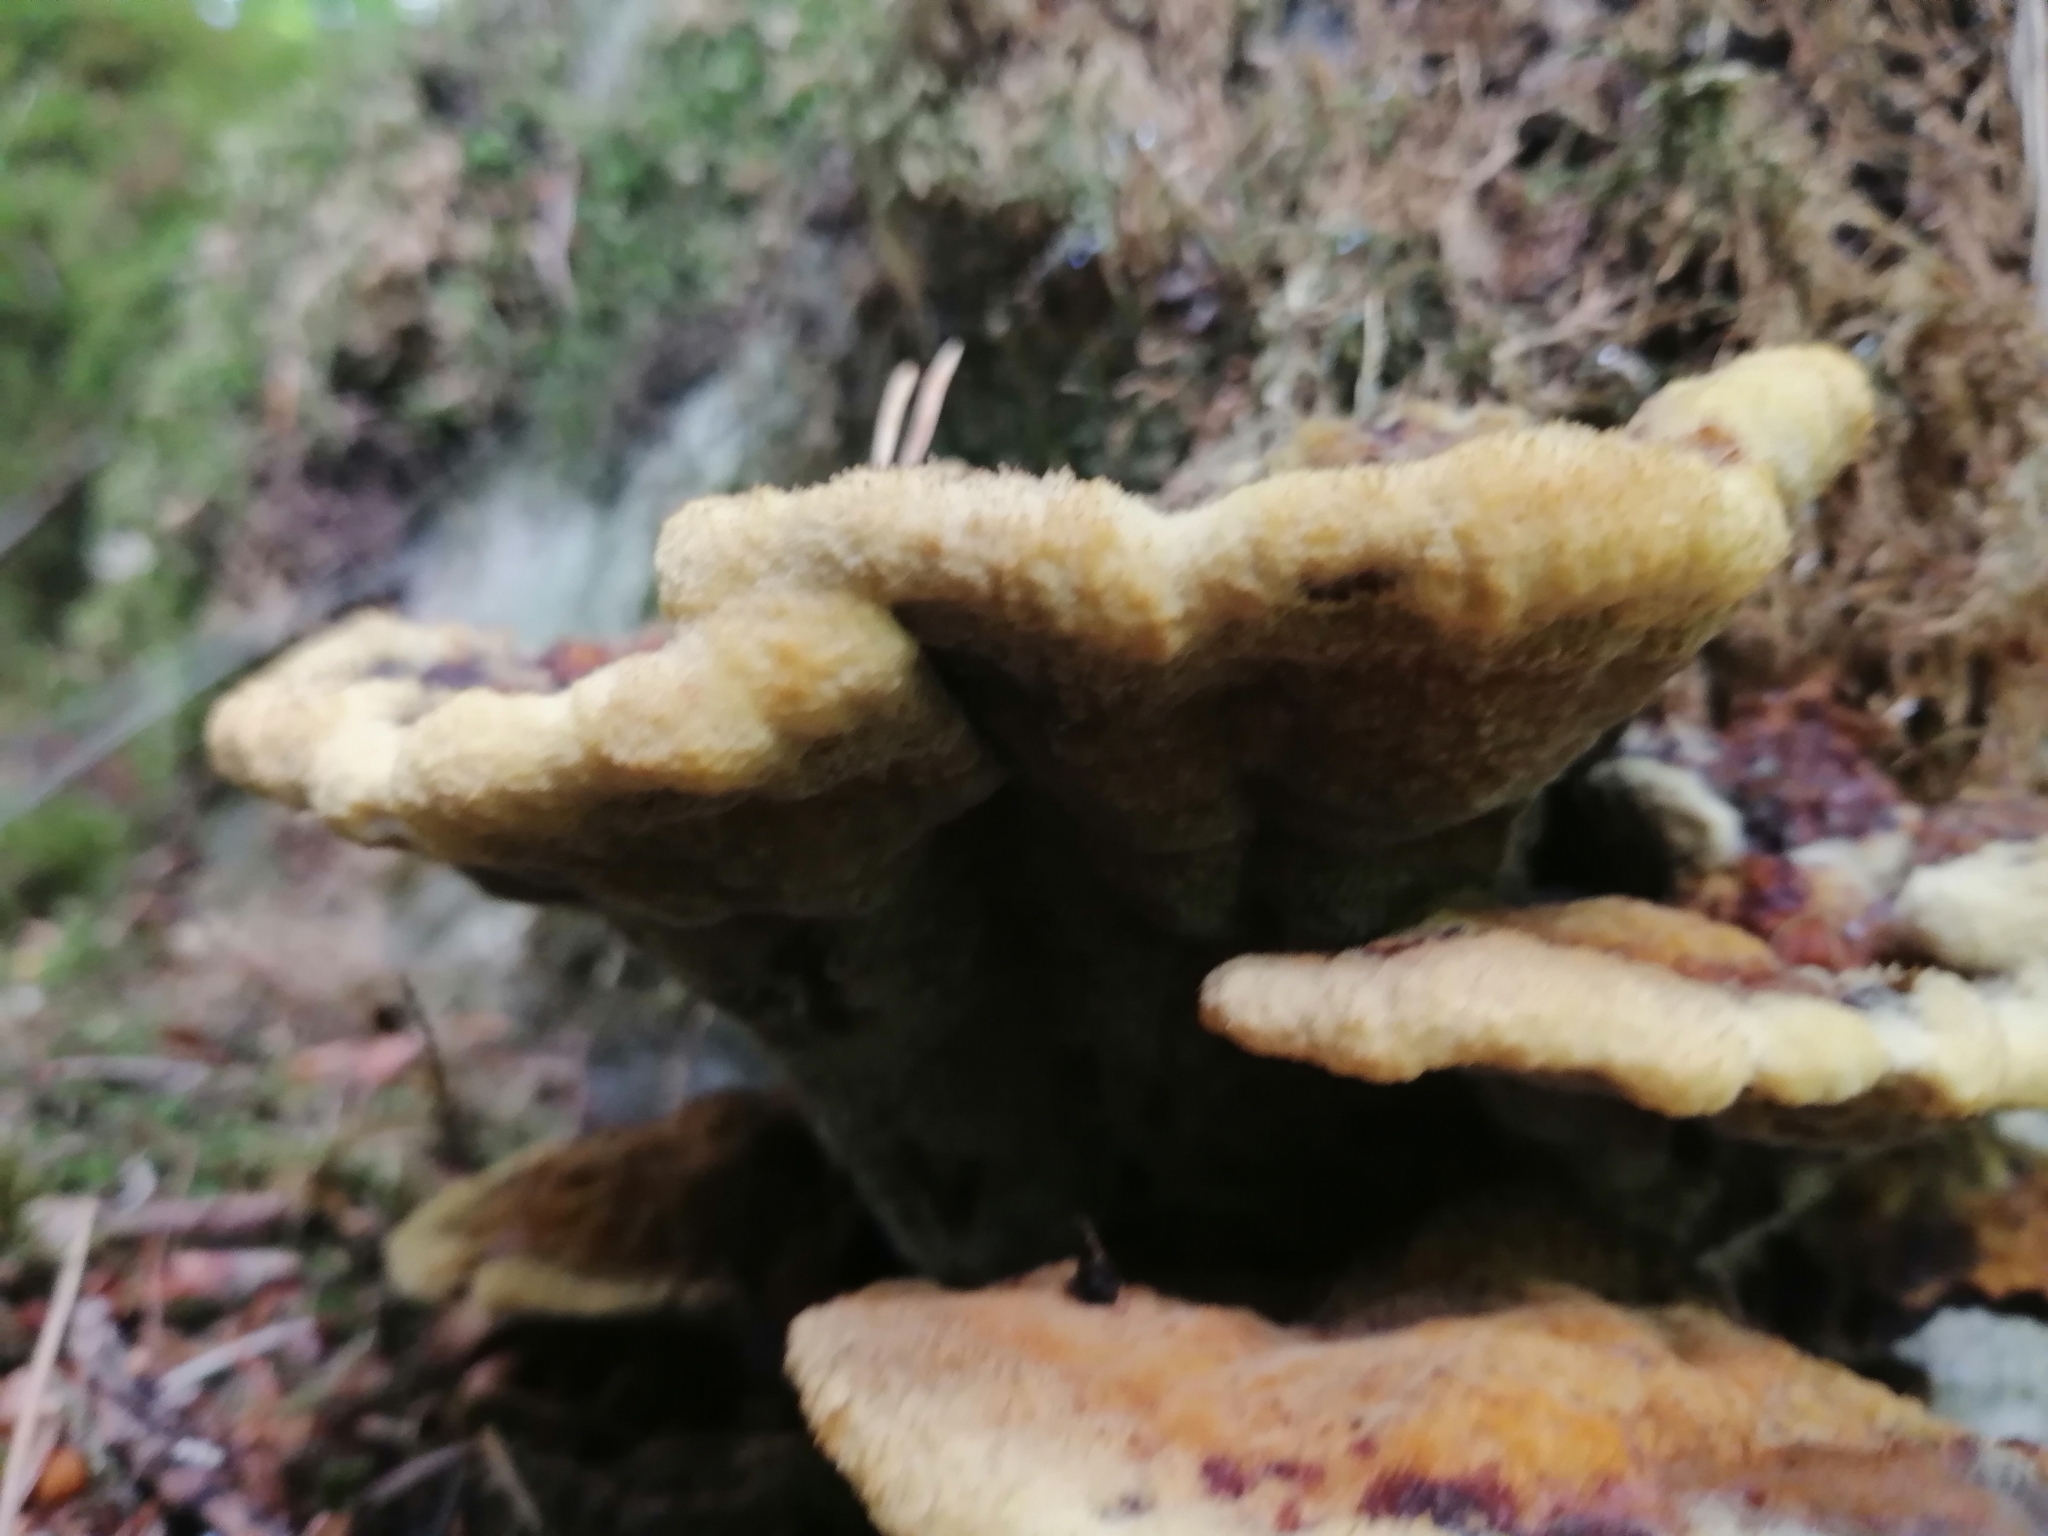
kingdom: Fungi
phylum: Basidiomycota
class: Agaricomycetes
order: Polyporales
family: Laetiporaceae
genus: Phaeolus
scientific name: Phaeolus schweinitzii
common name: Dyer's mazegill
